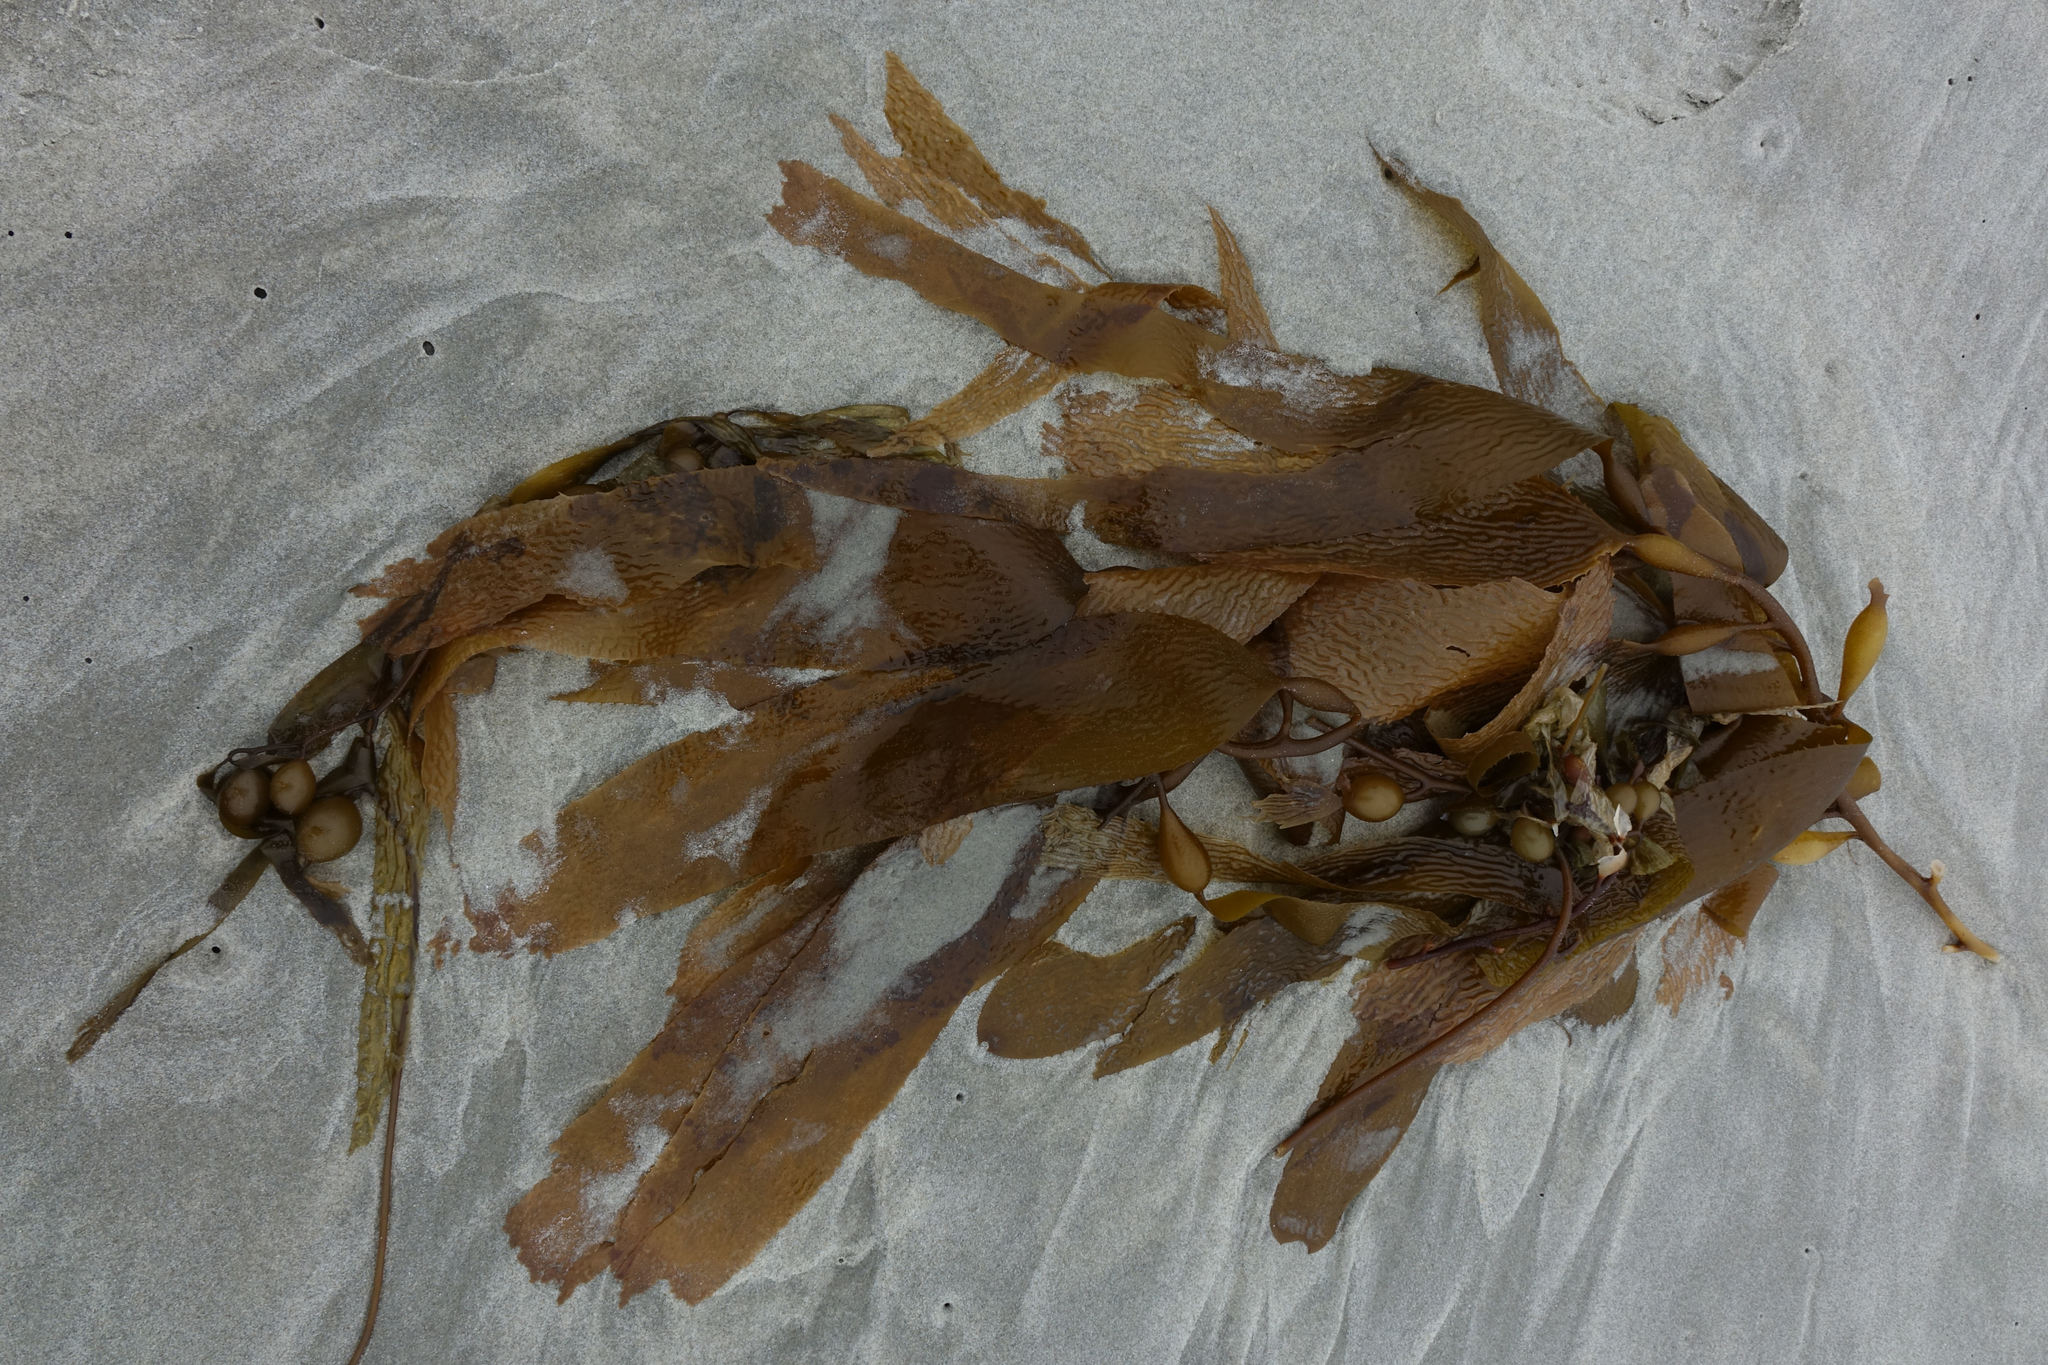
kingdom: Chromista
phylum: Ochrophyta
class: Phaeophyceae
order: Laminariales
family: Laminariaceae
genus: Macrocystis
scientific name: Macrocystis pyrifera
